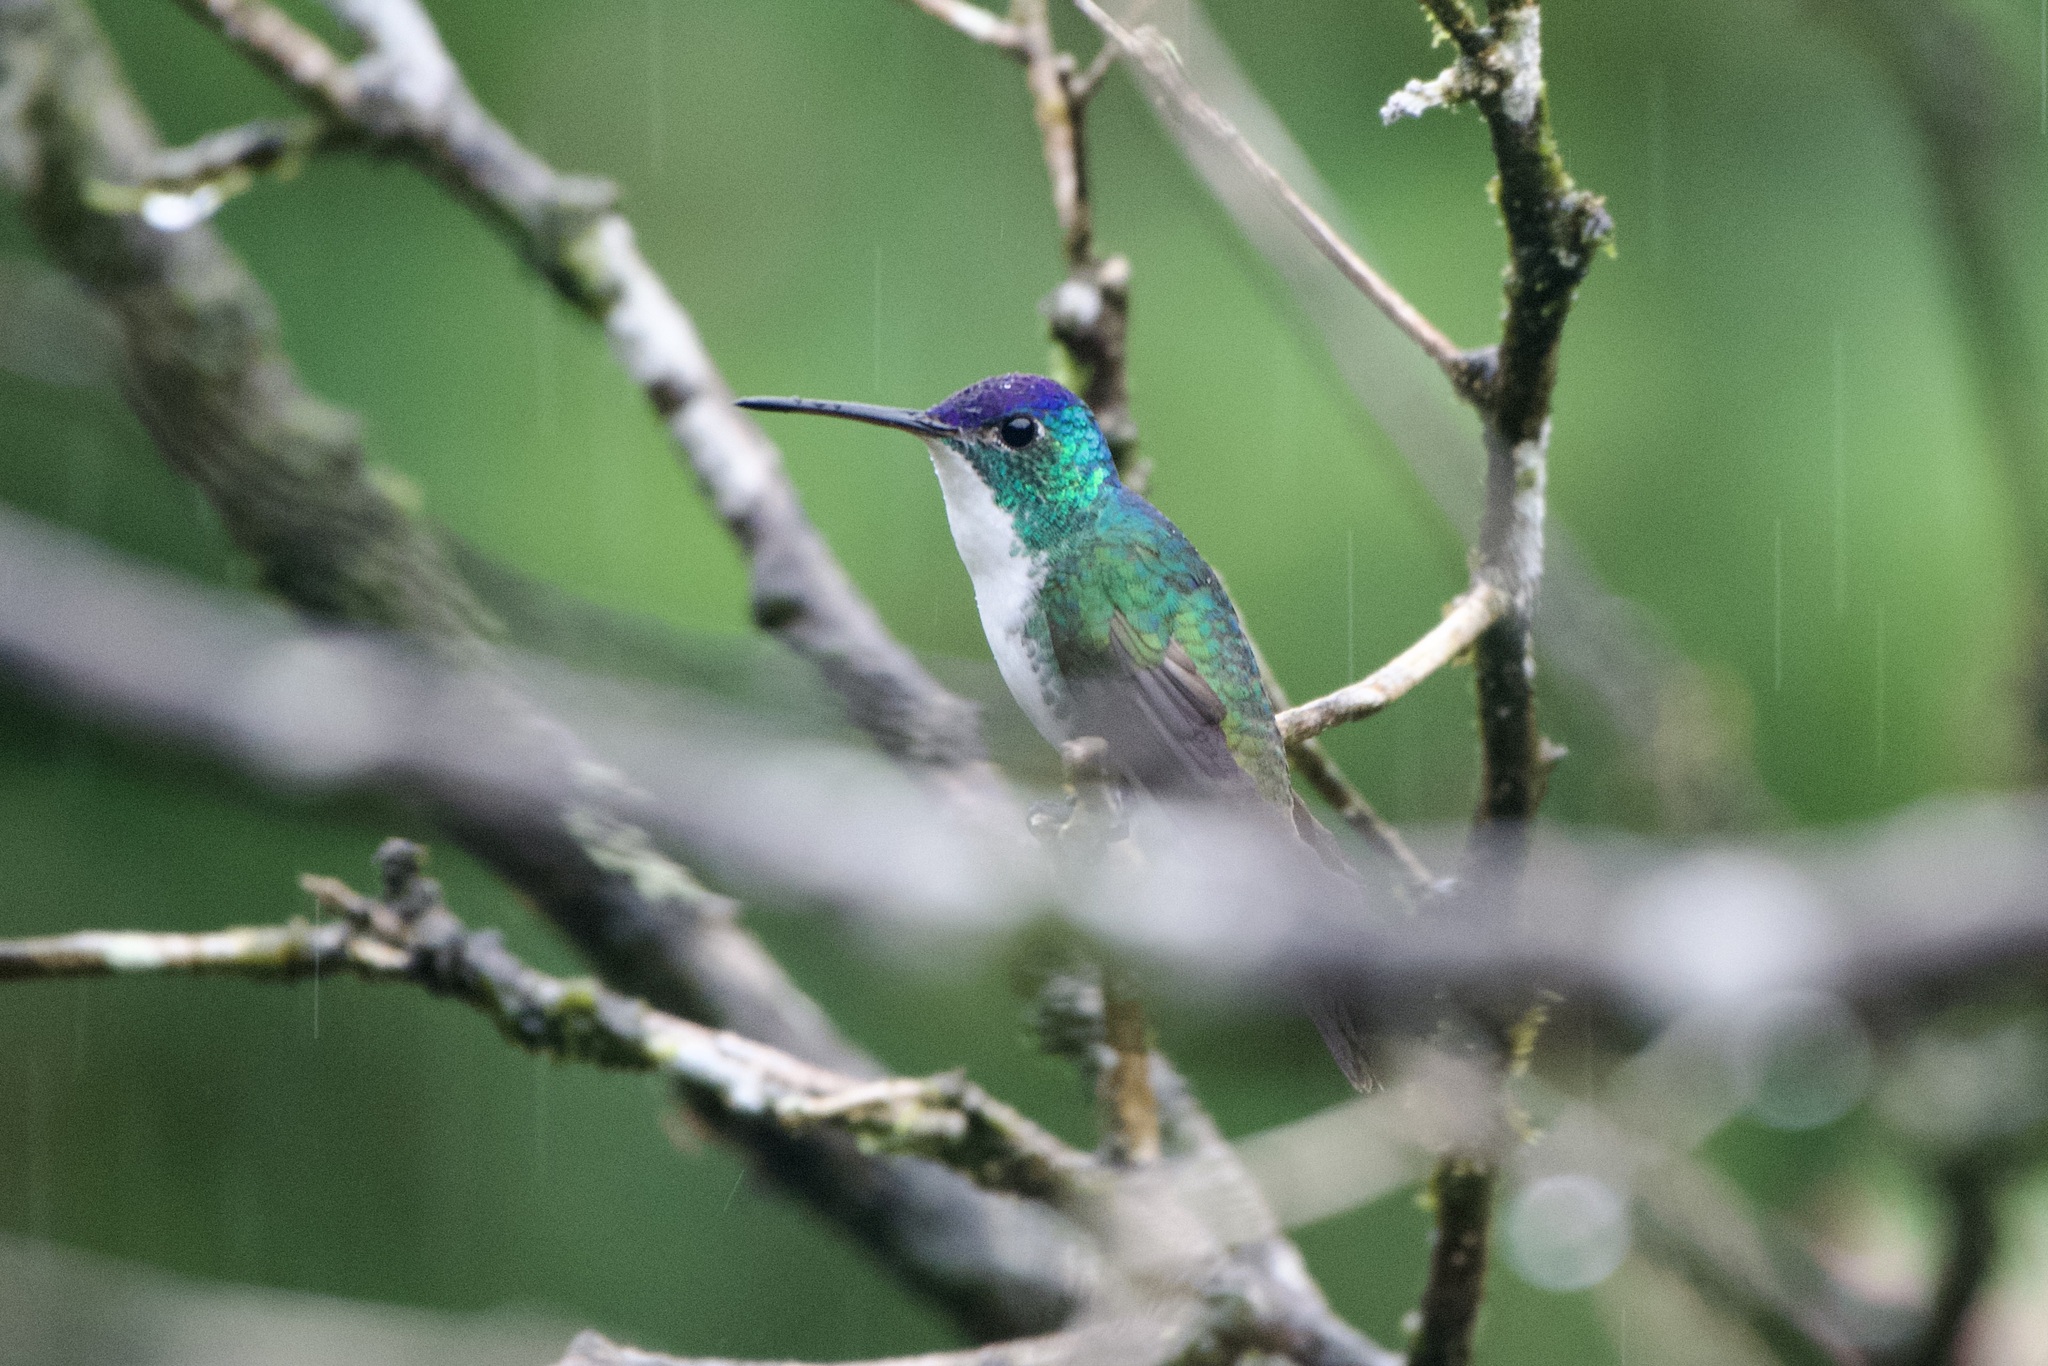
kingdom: Animalia
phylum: Chordata
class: Aves
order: Apodiformes
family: Trochilidae
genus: Uranomitra
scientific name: Uranomitra franciae
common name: Andean emerald
